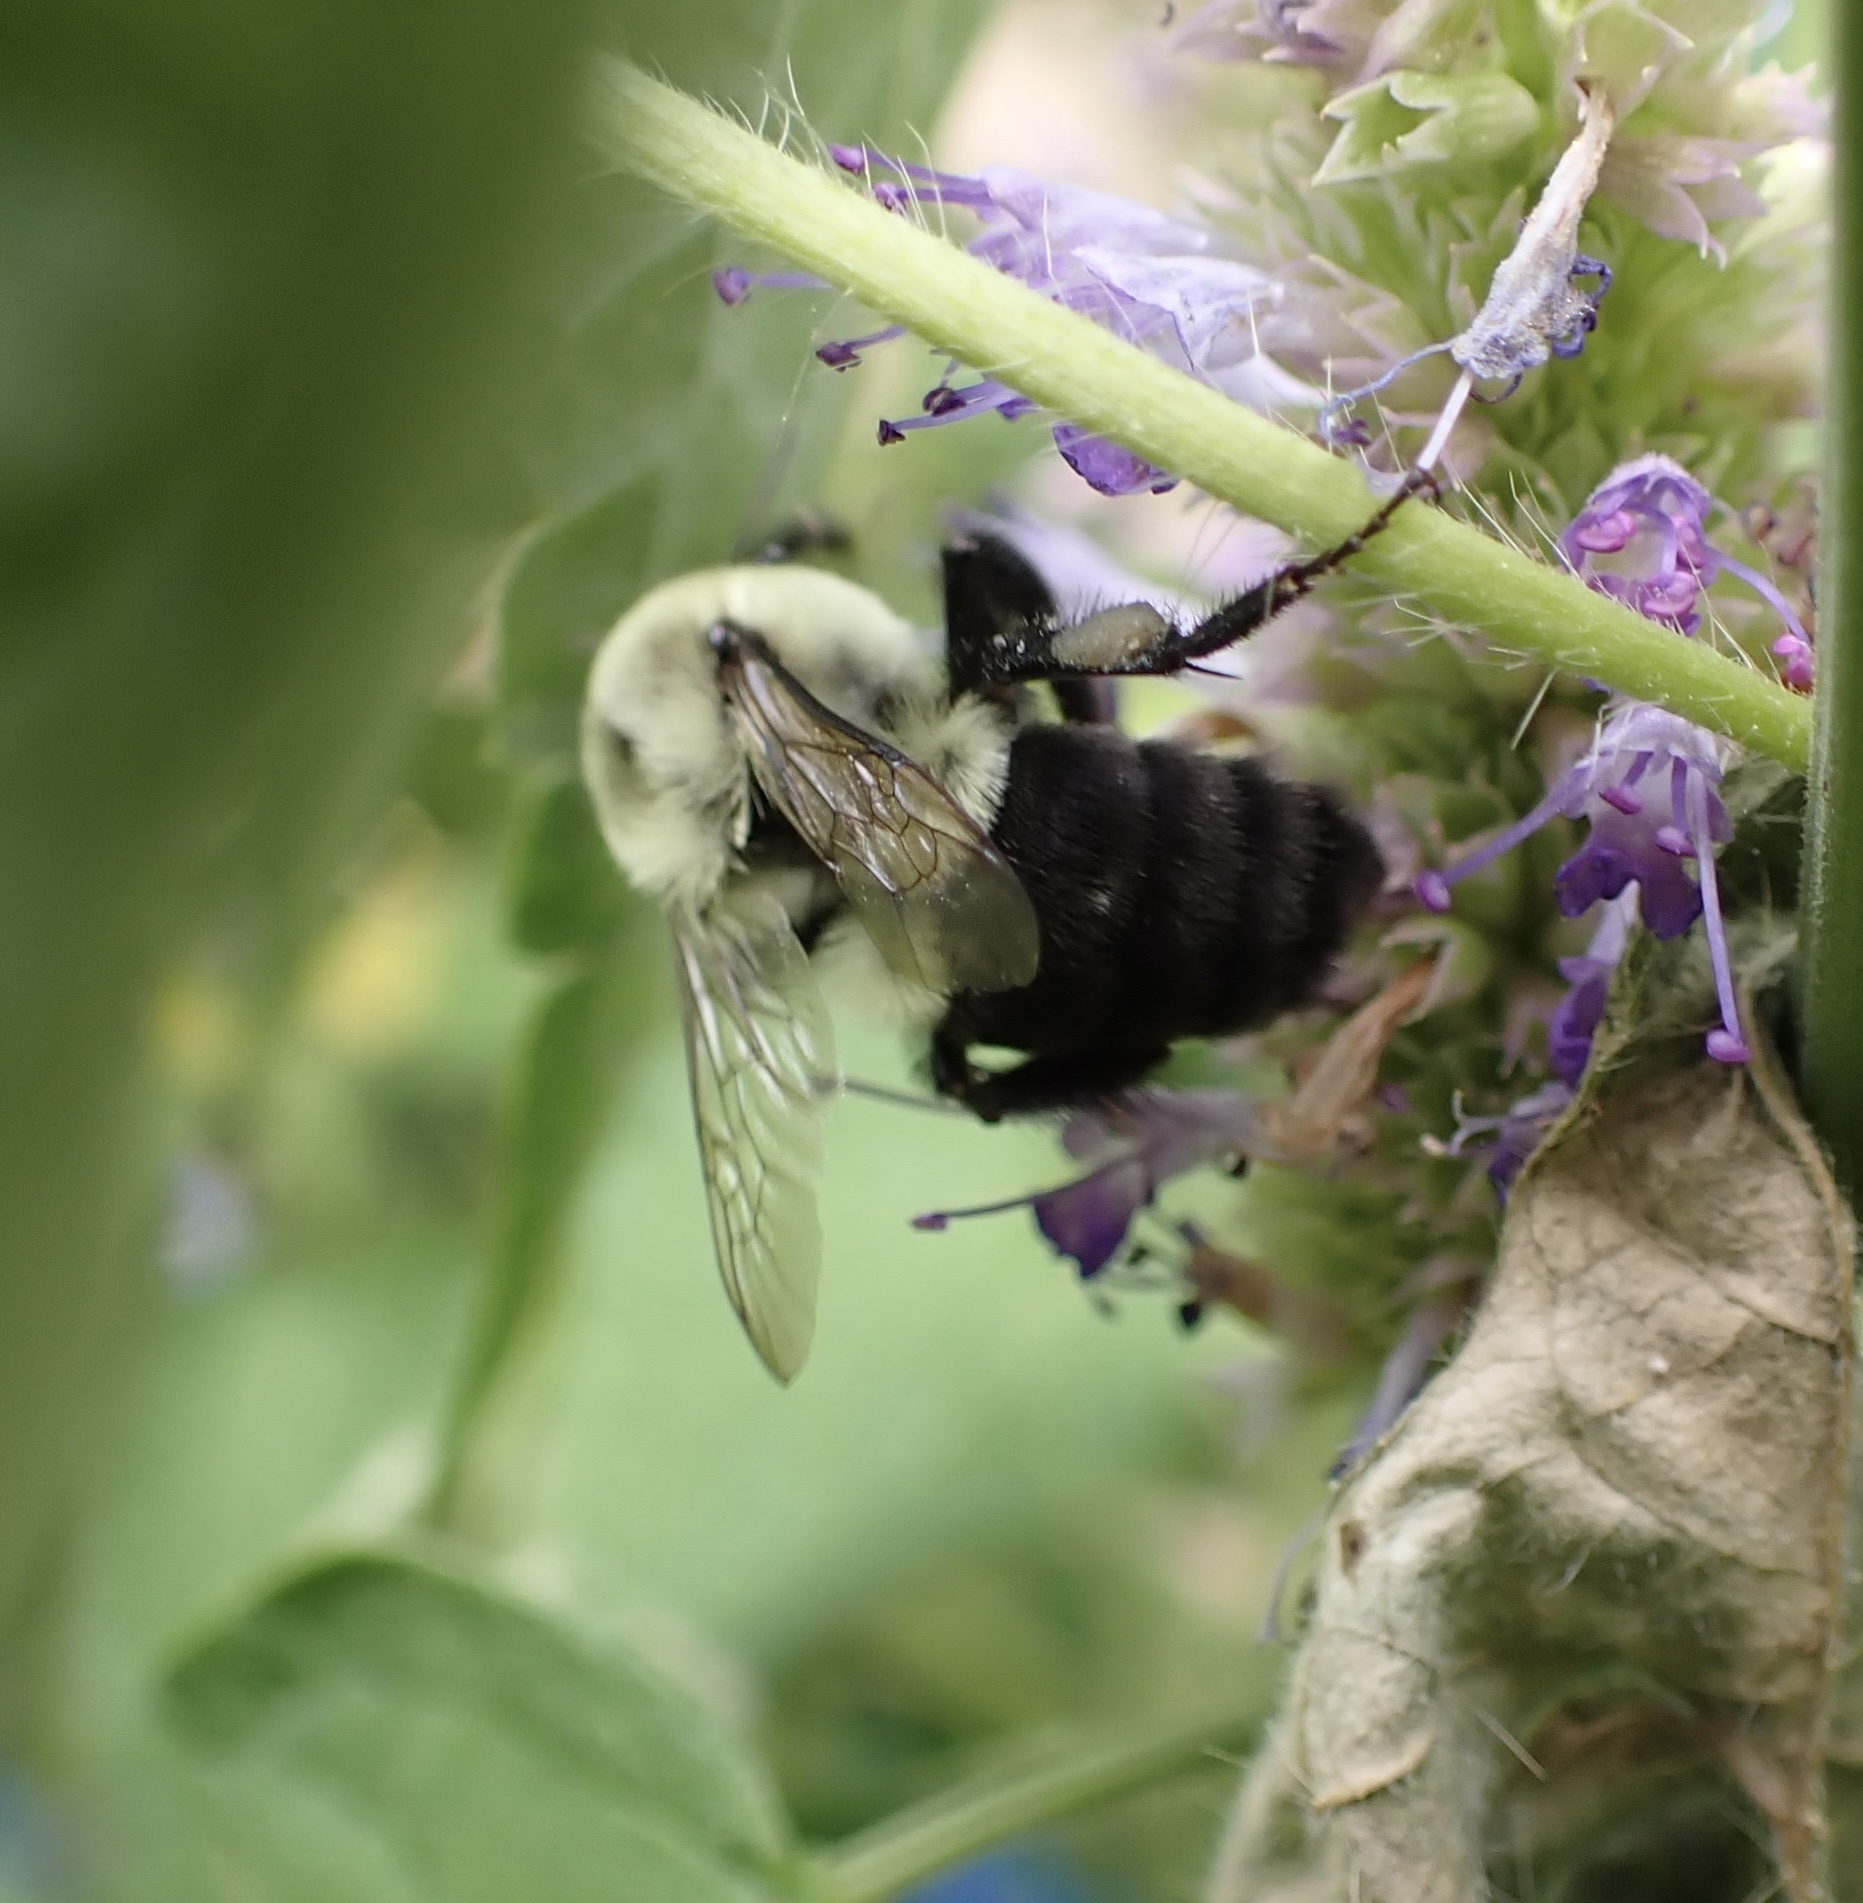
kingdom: Animalia
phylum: Arthropoda
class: Insecta
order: Hymenoptera
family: Apidae
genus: Bombus
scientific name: Bombus impatiens
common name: Common eastern bumble bee
